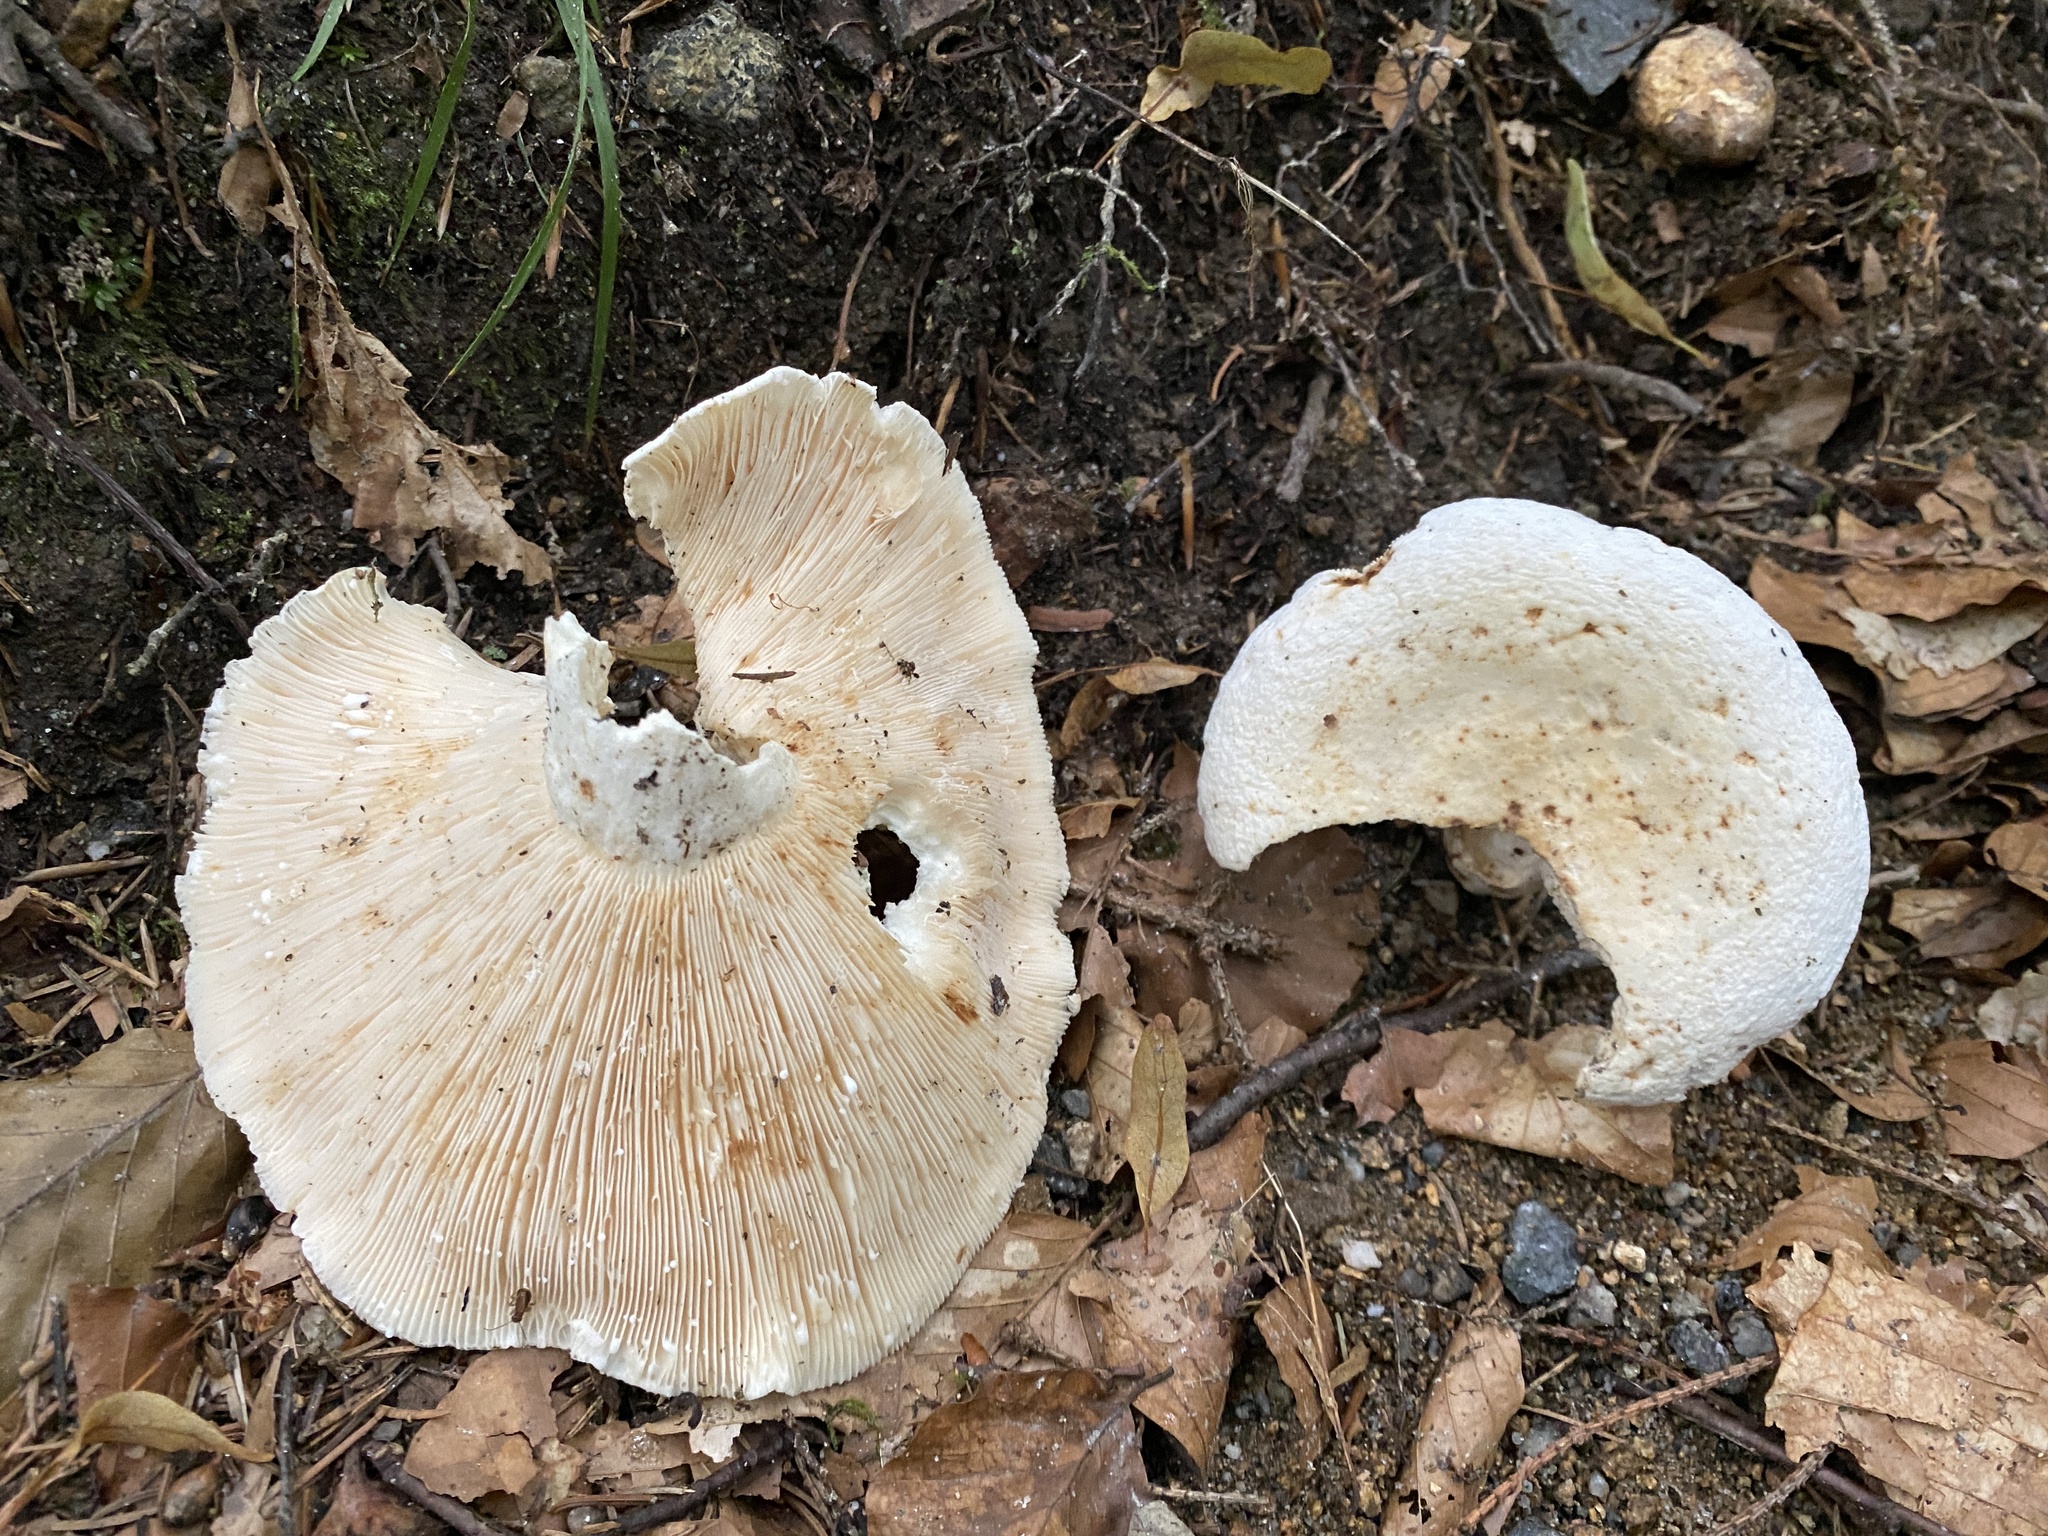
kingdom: Fungi
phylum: Basidiomycota
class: Agaricomycetes
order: Russulales
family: Russulaceae
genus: Lactifluus
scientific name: Lactifluus piperatus
